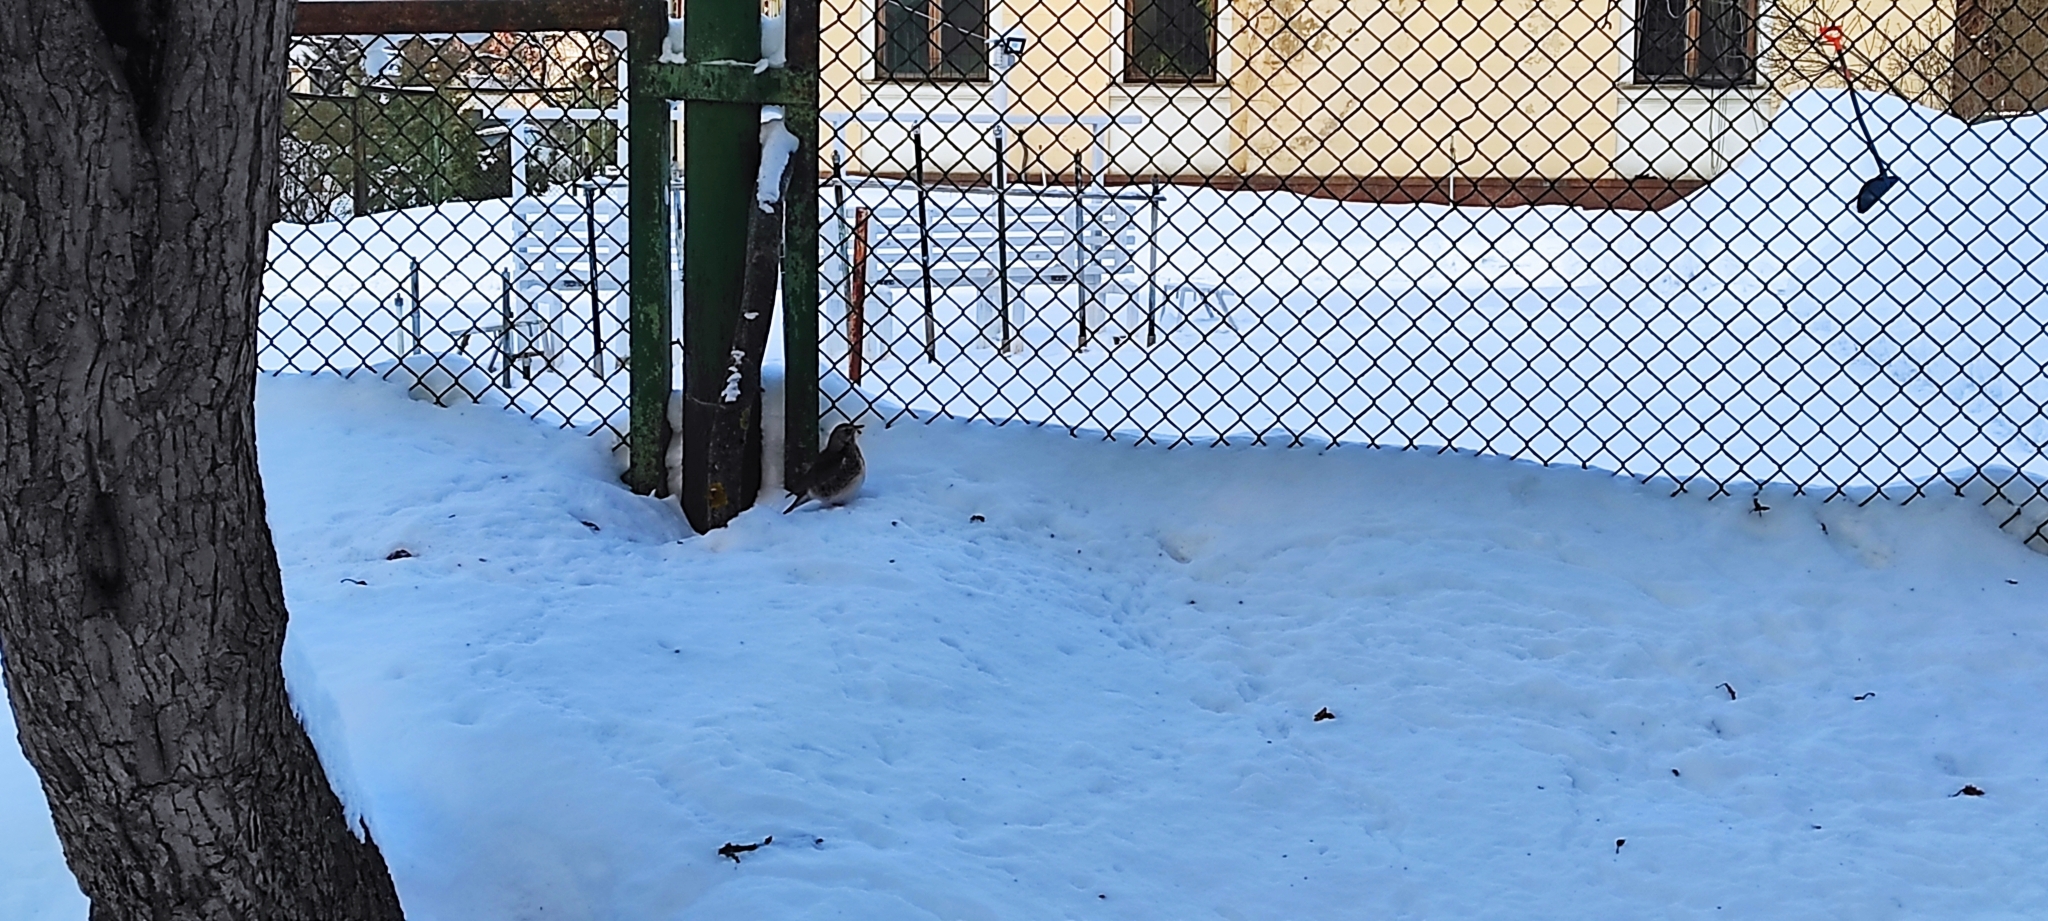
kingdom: Animalia
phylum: Chordata
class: Aves
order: Passeriformes
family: Turdidae
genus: Turdus
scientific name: Turdus pilaris
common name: Fieldfare
